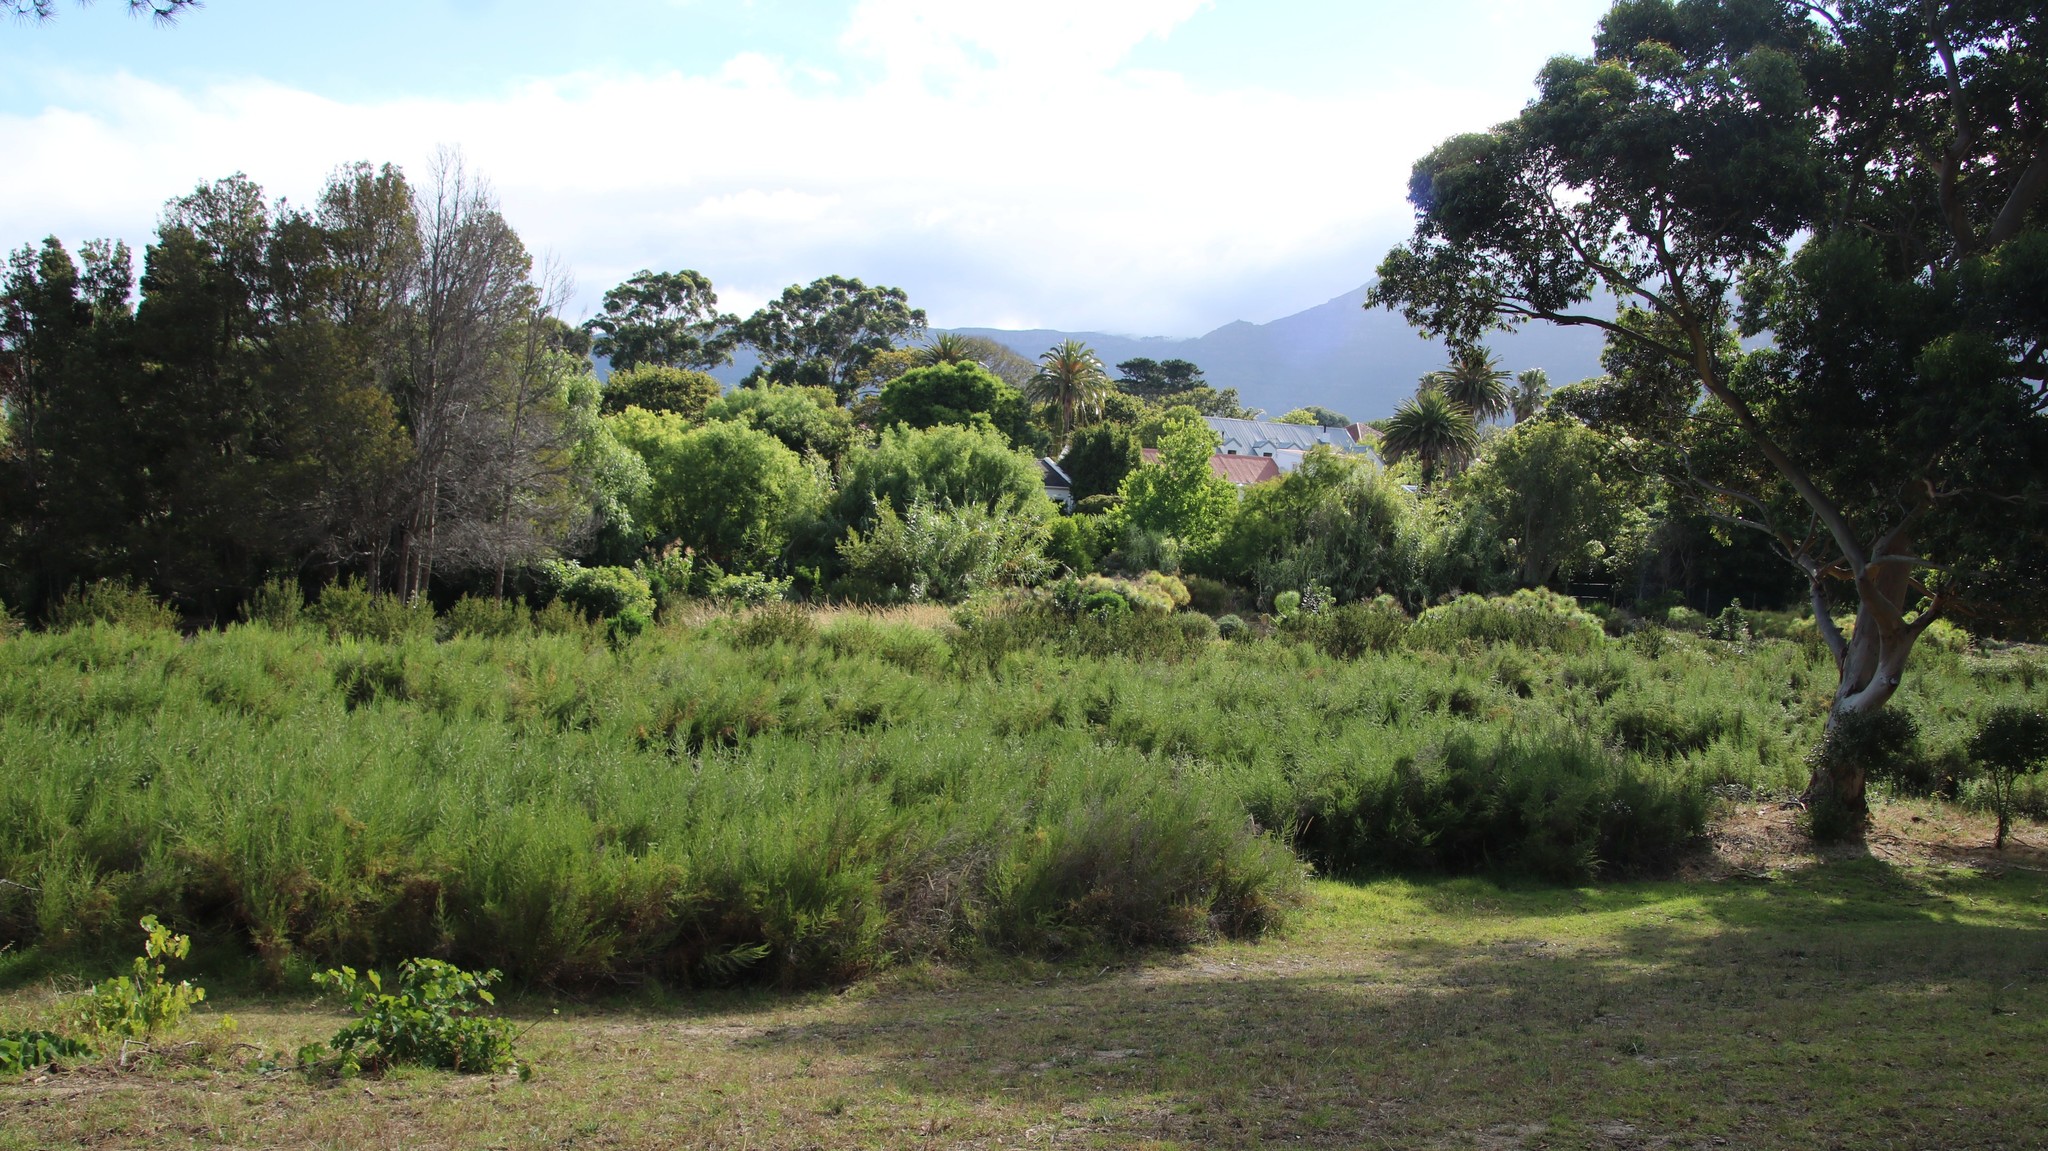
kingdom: Plantae
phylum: Tracheophyta
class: Magnoliopsida
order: Rosales
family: Rosaceae
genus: Cliffortia
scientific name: Cliffortia strobilifera
